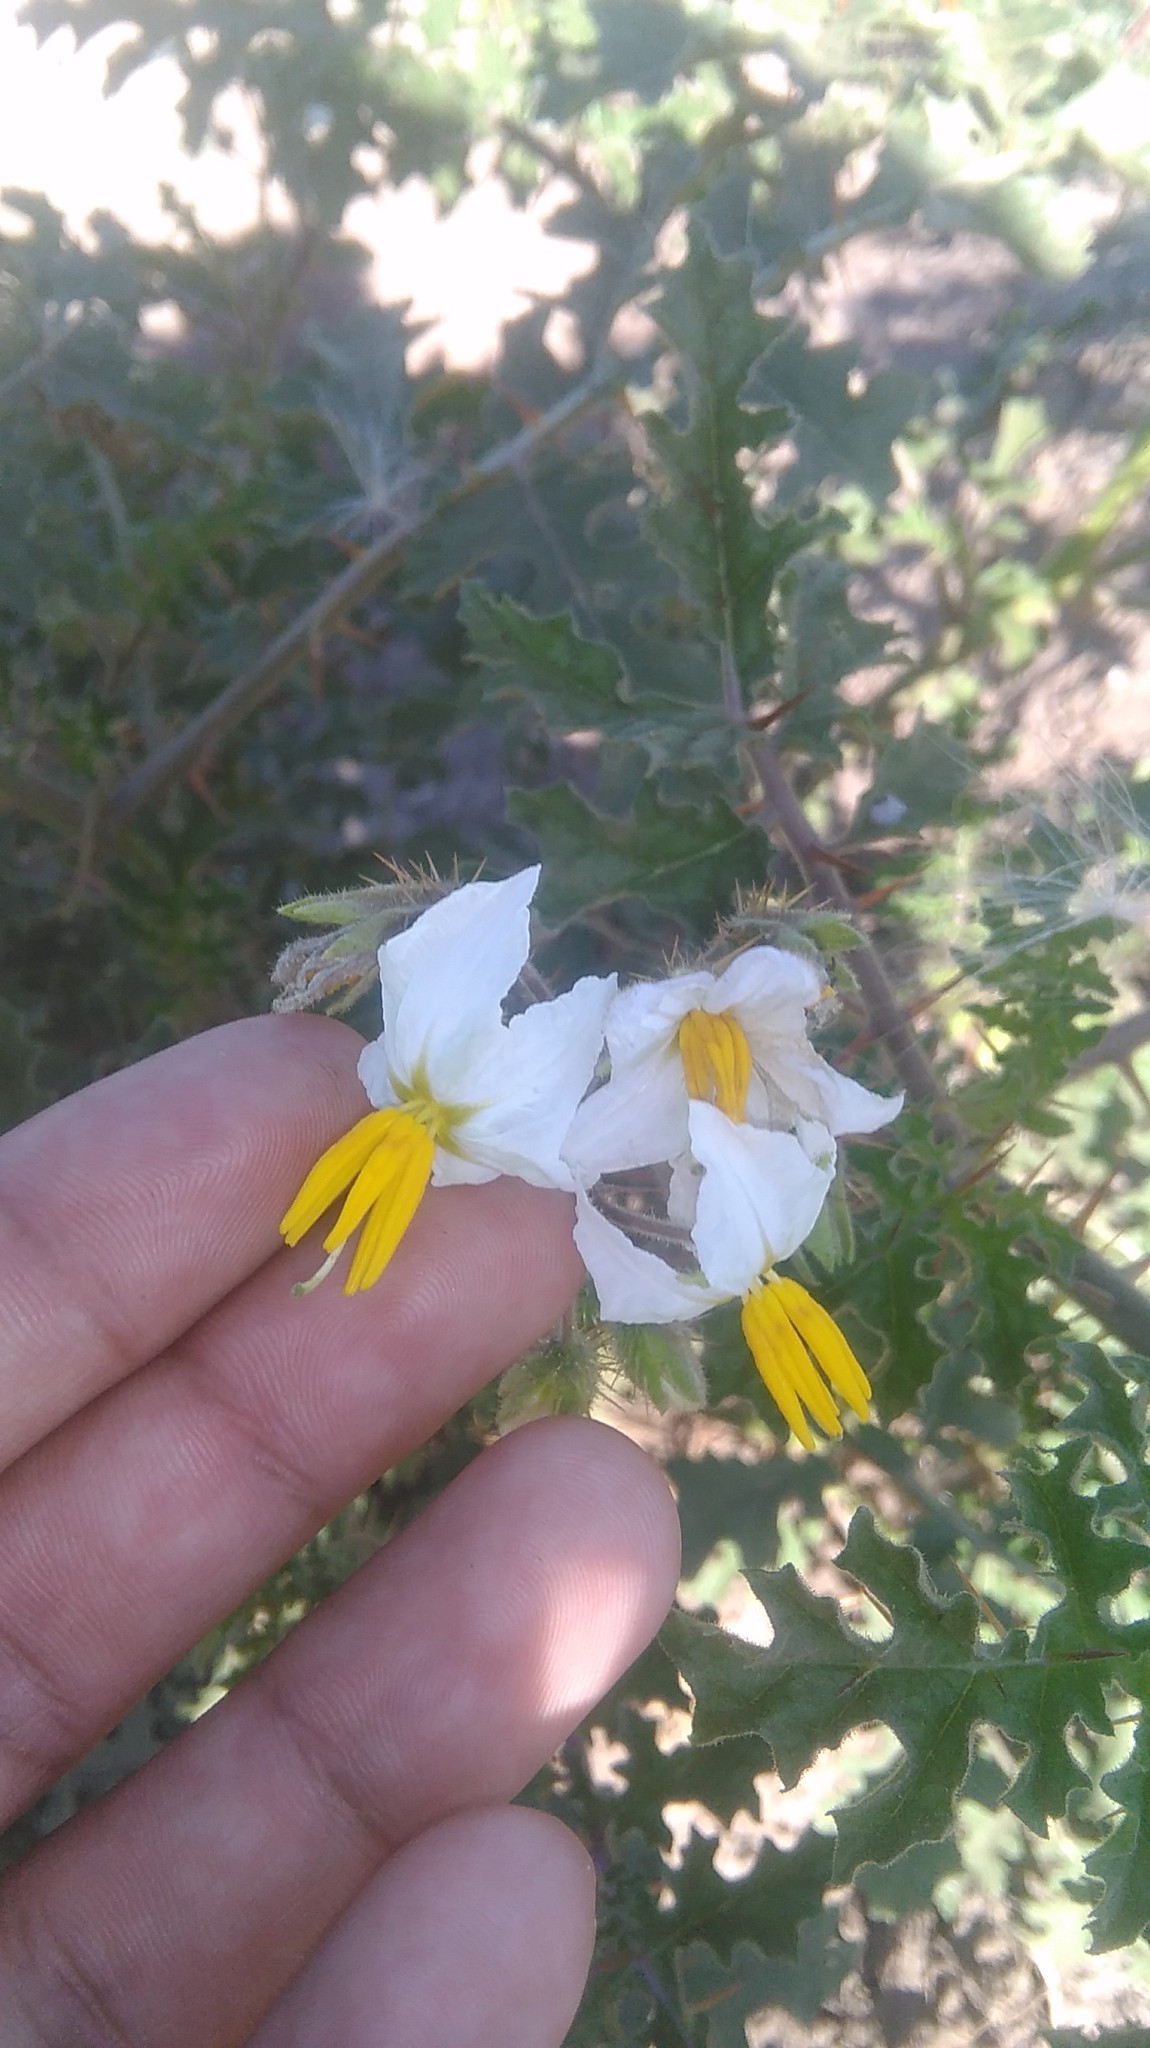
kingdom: Plantae
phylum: Tracheophyta
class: Magnoliopsida
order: Solanales
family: Solanaceae
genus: Solanum
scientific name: Solanum sisymbriifolium
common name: Red buffalo-bur
